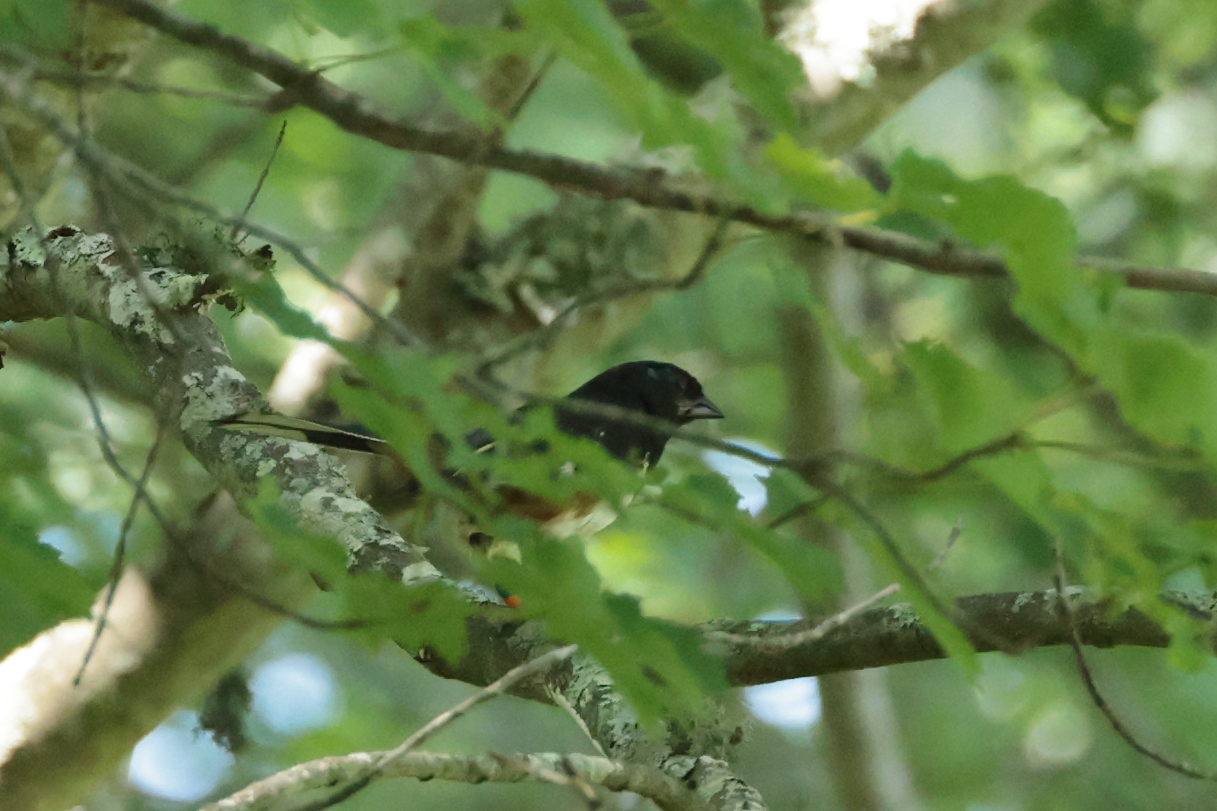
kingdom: Animalia
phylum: Chordata
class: Aves
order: Passeriformes
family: Passerellidae
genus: Pipilo
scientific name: Pipilo erythrophthalmus
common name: Eastern towhee
